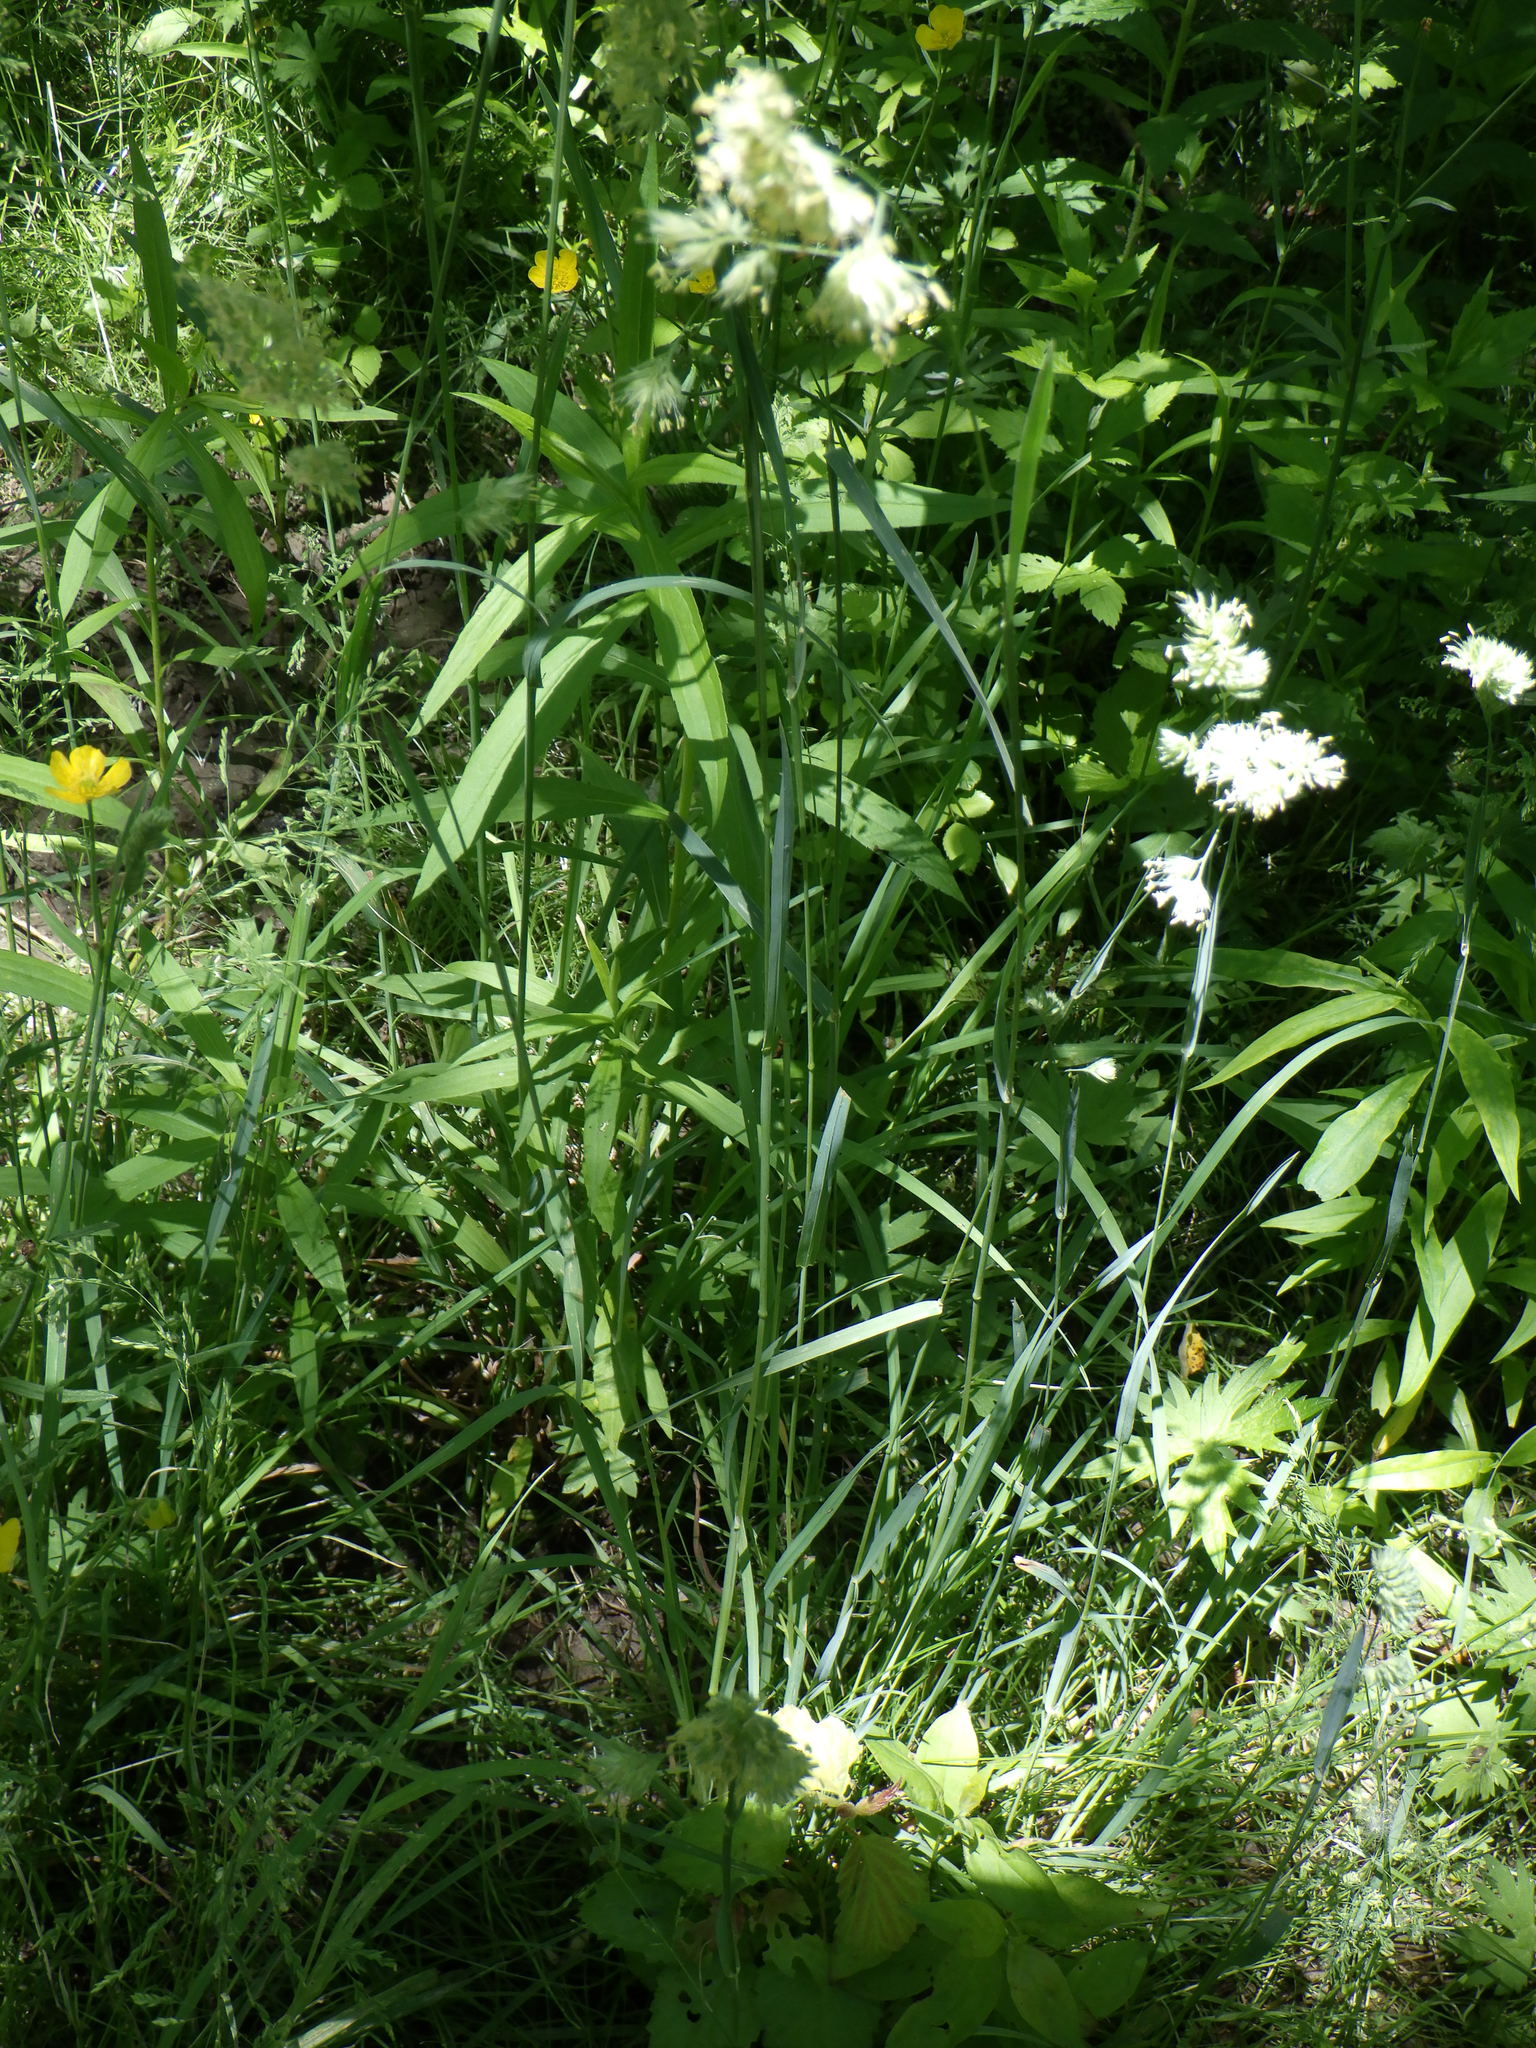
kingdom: Plantae
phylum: Tracheophyta
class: Liliopsida
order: Poales
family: Poaceae
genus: Dactylis
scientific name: Dactylis glomerata
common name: Orchardgrass
